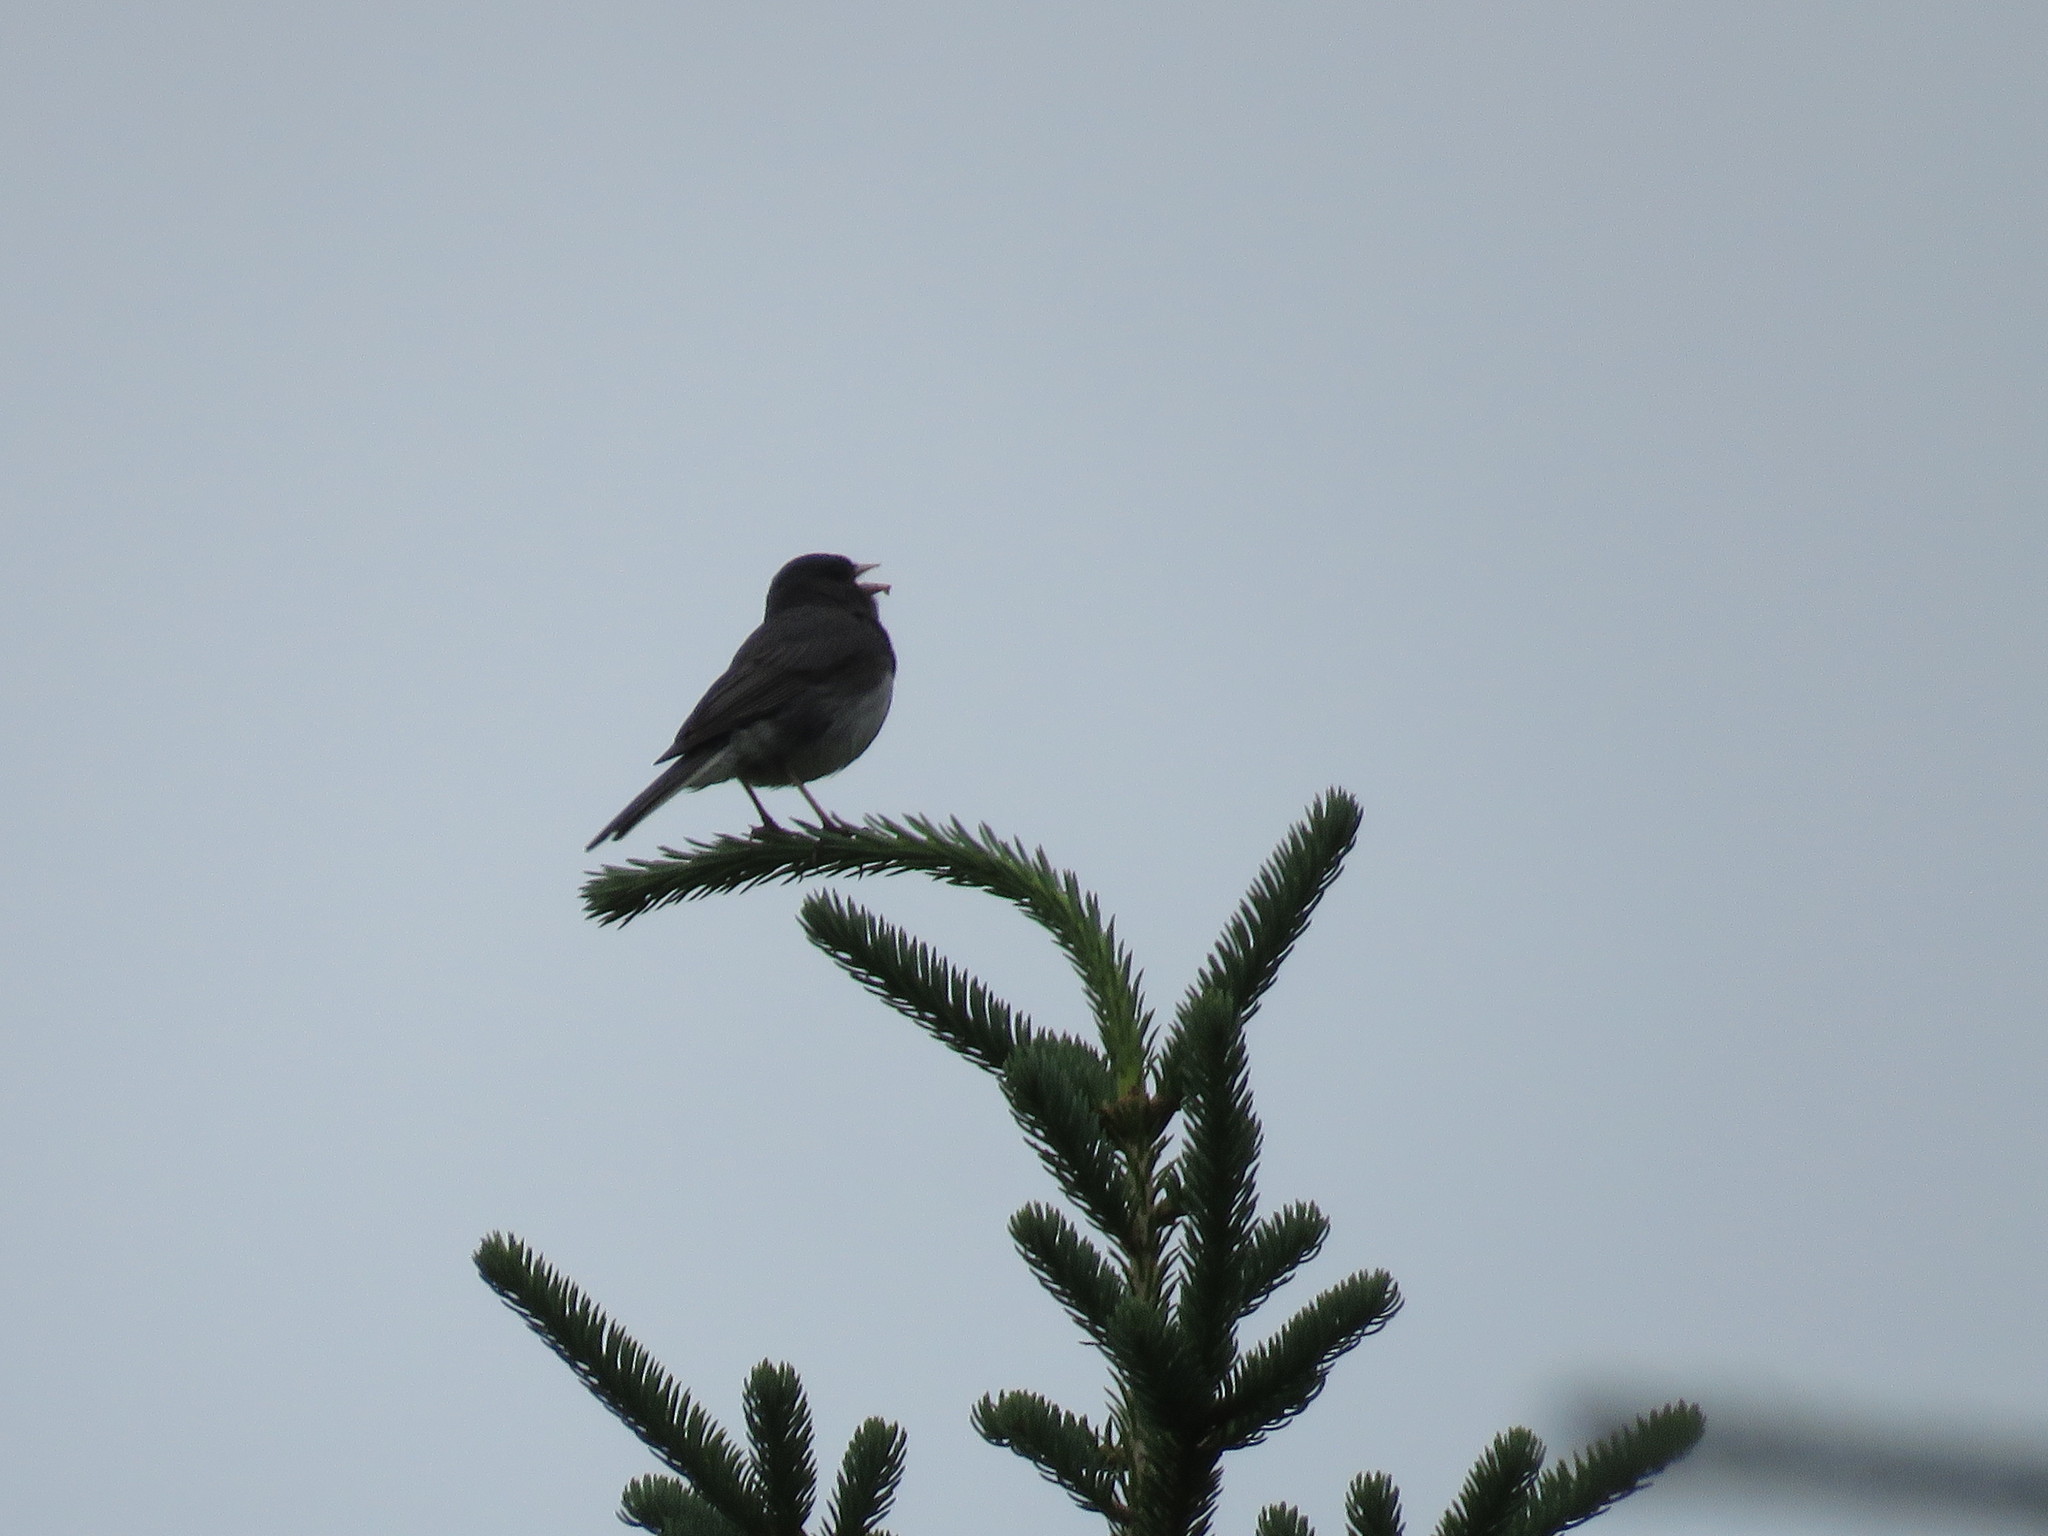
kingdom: Animalia
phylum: Chordata
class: Aves
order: Passeriformes
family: Passerellidae
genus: Junco
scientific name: Junco hyemalis
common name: Dark-eyed junco
